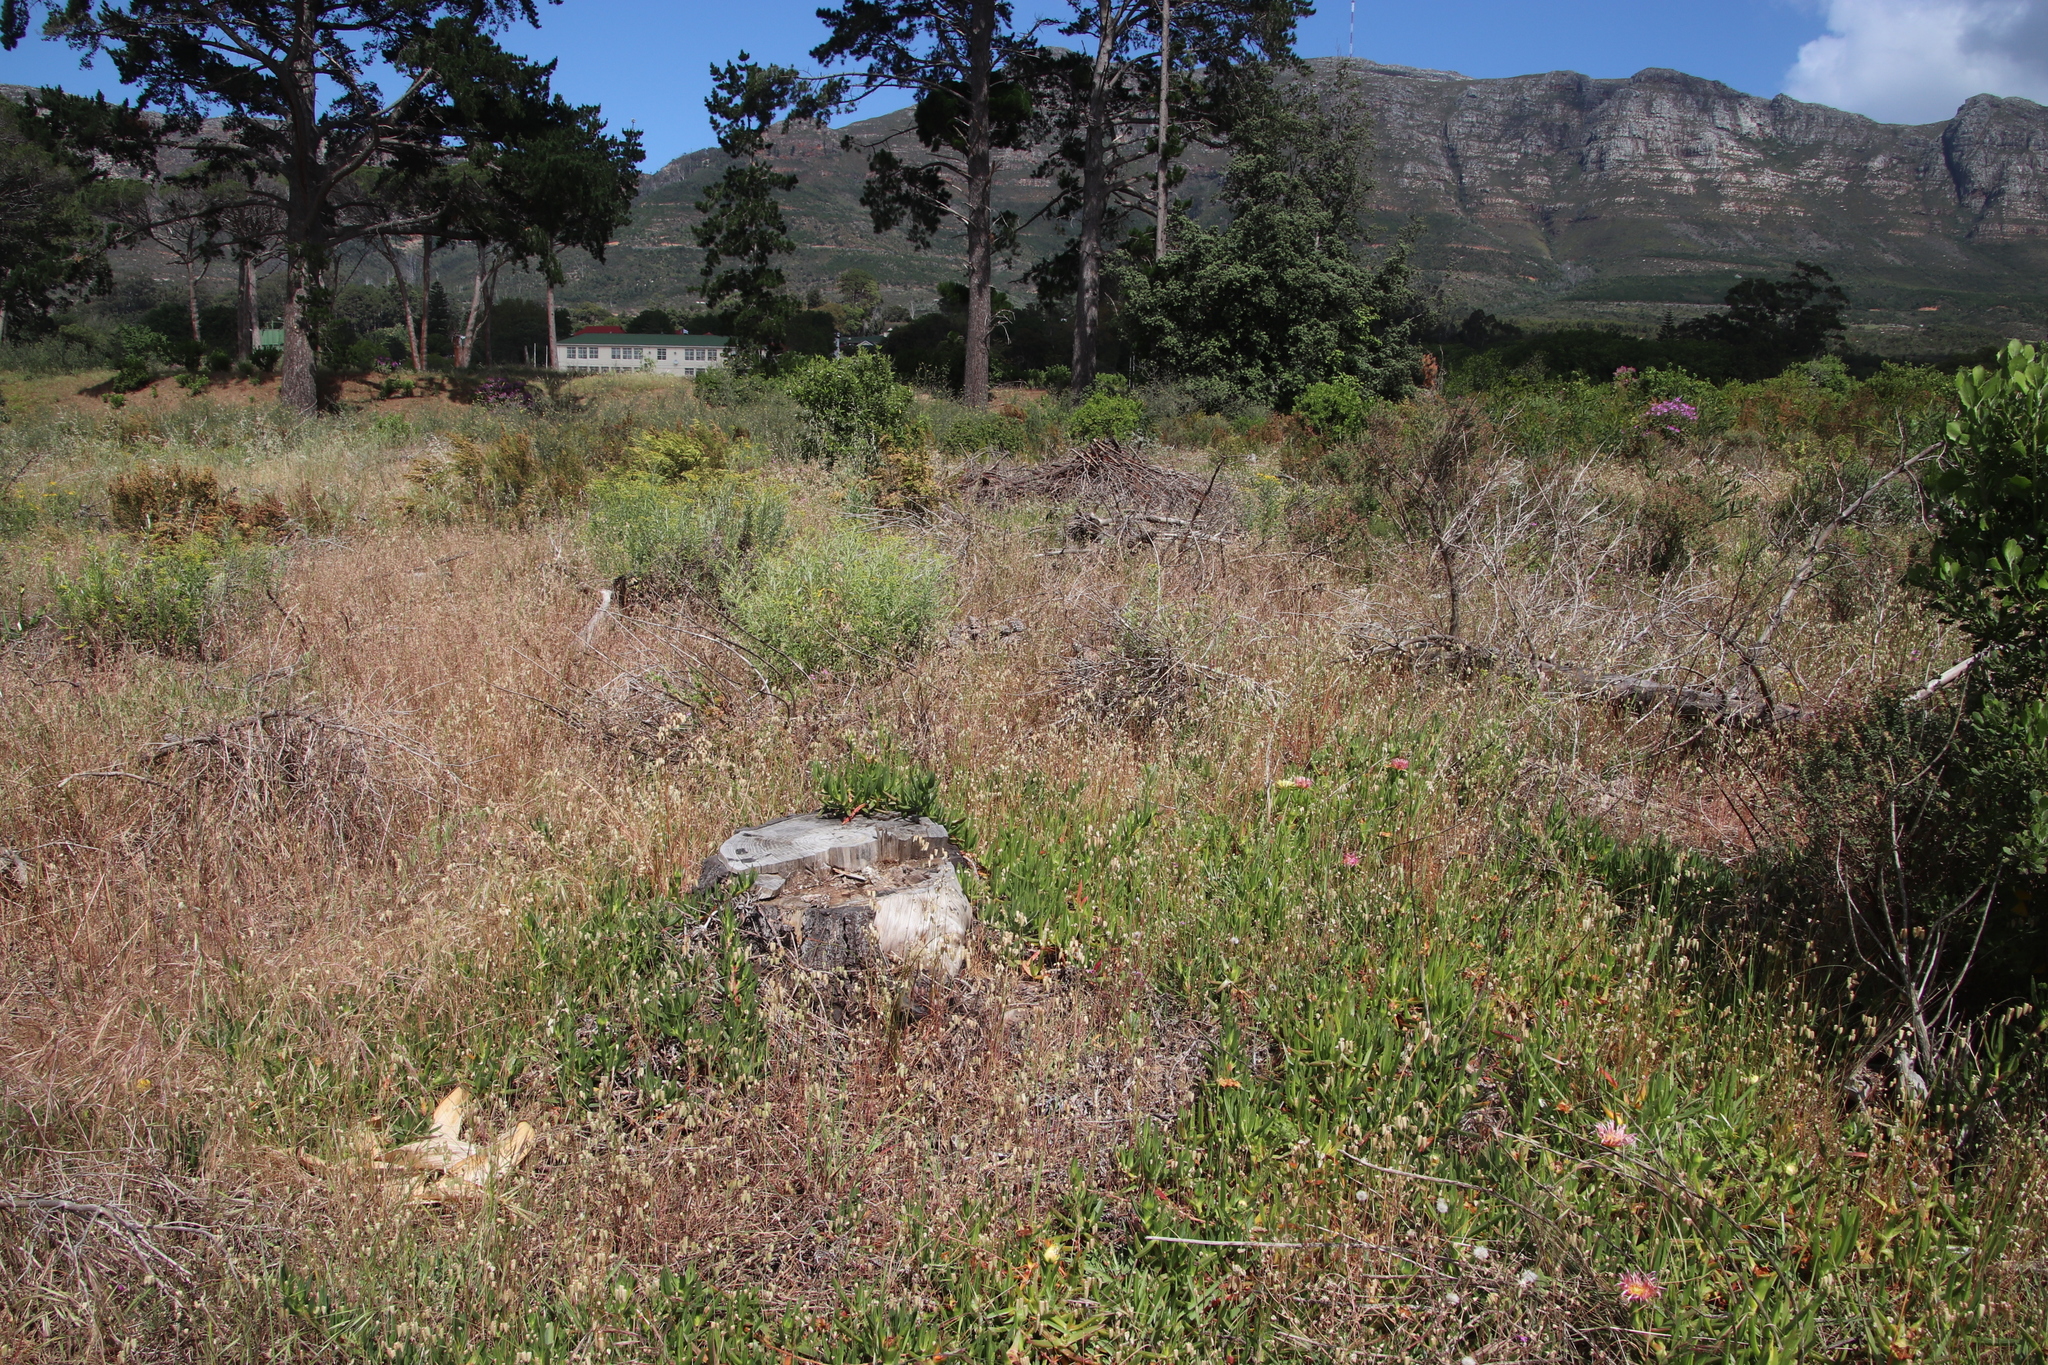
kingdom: Plantae
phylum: Tracheophyta
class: Liliopsida
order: Poales
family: Poaceae
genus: Briza
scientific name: Briza maxima
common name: Big quakinggrass
